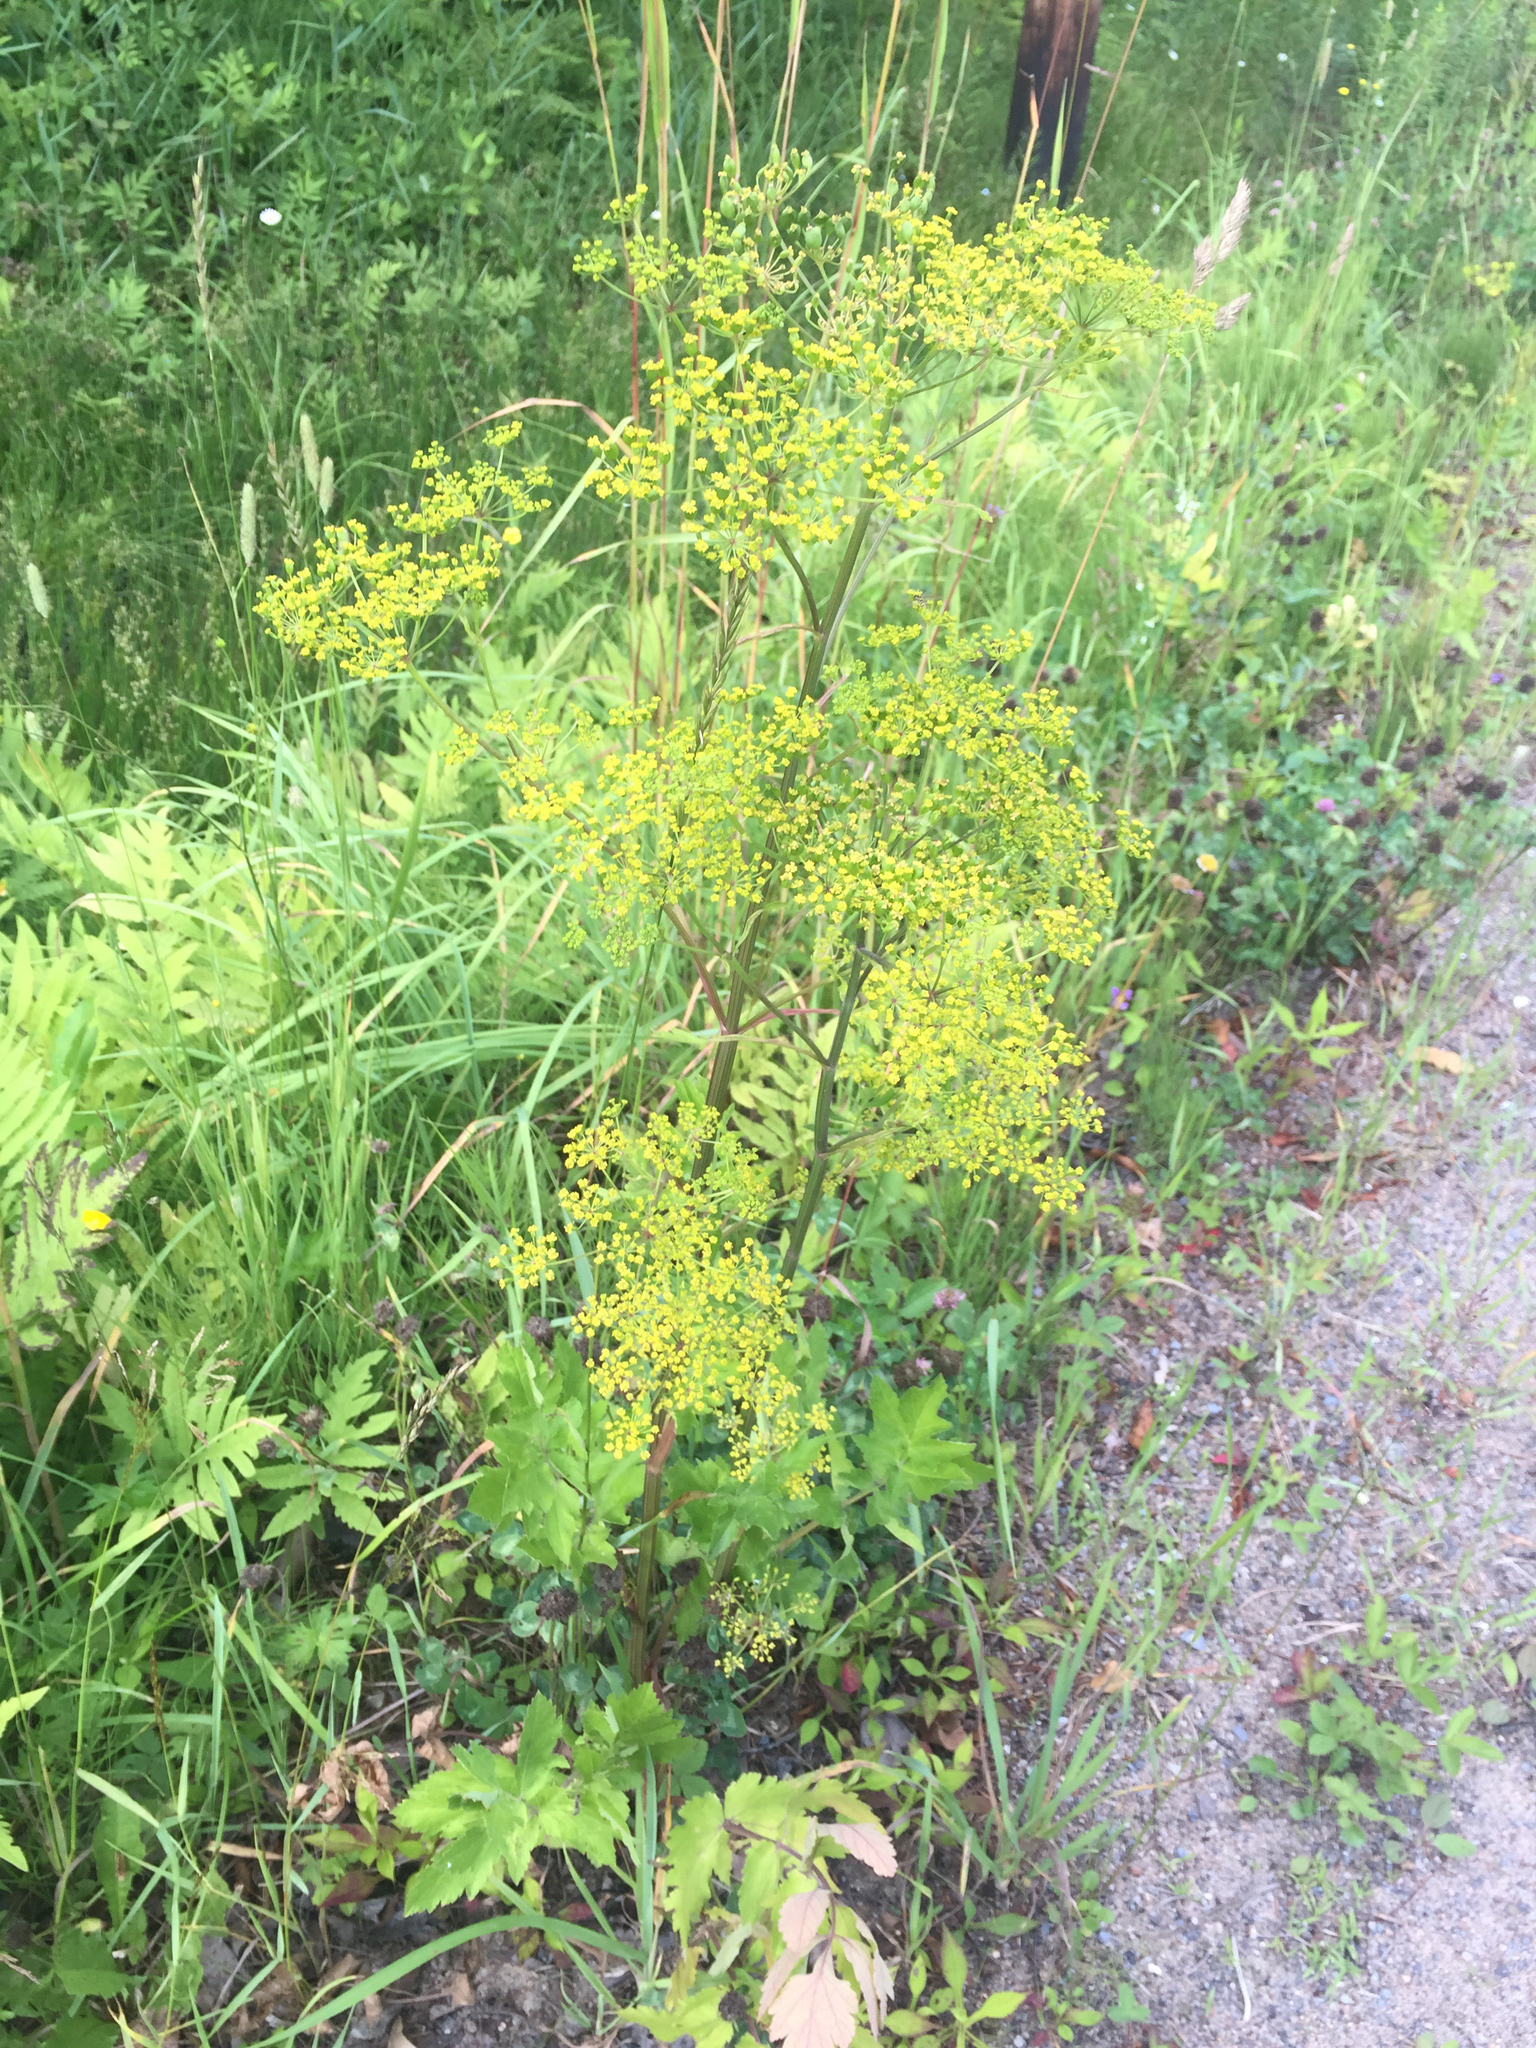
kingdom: Plantae
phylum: Tracheophyta
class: Magnoliopsida
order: Apiales
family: Apiaceae
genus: Pastinaca
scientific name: Pastinaca sativa
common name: Wild parsnip
